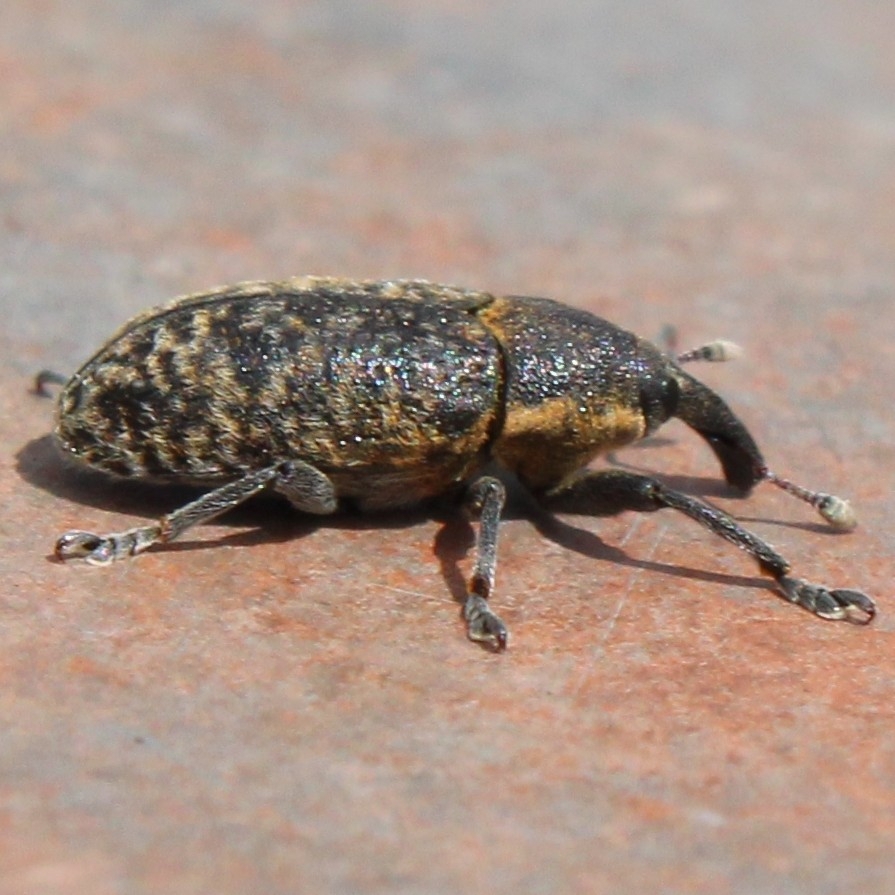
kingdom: Animalia
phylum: Arthropoda
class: Insecta
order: Coleoptera
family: Curculionidae
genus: Larinus
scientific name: Larinus carlinae
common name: Weevil
